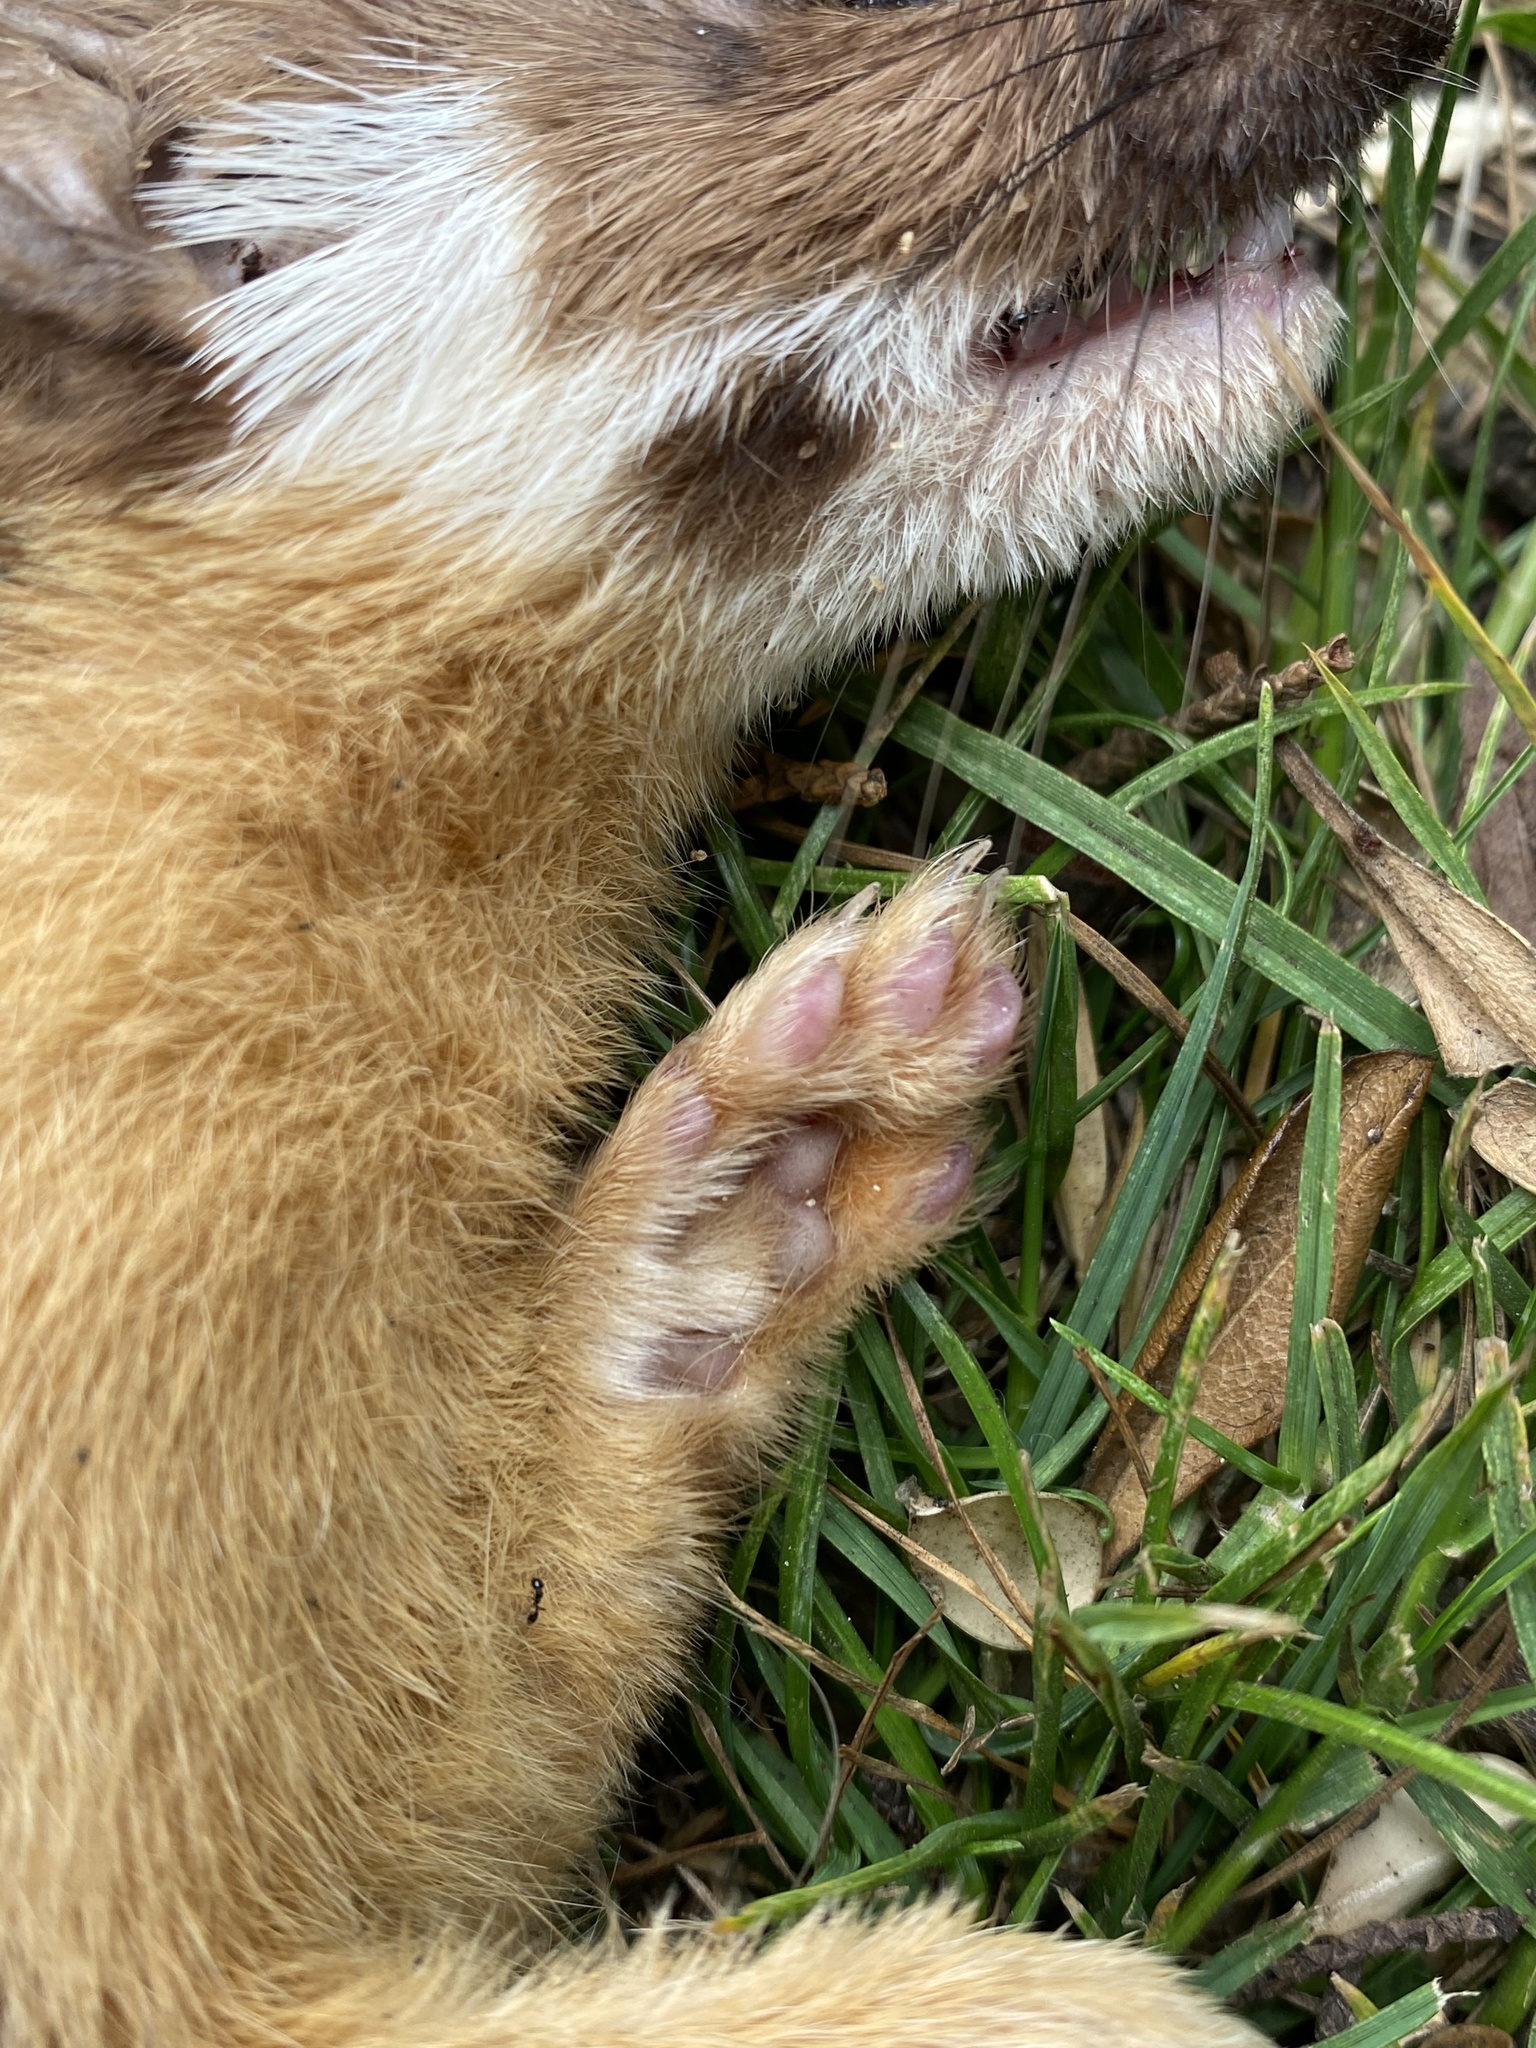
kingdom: Animalia
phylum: Chordata
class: Mammalia
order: Carnivora
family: Mustelidae
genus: Mustela
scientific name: Mustela
